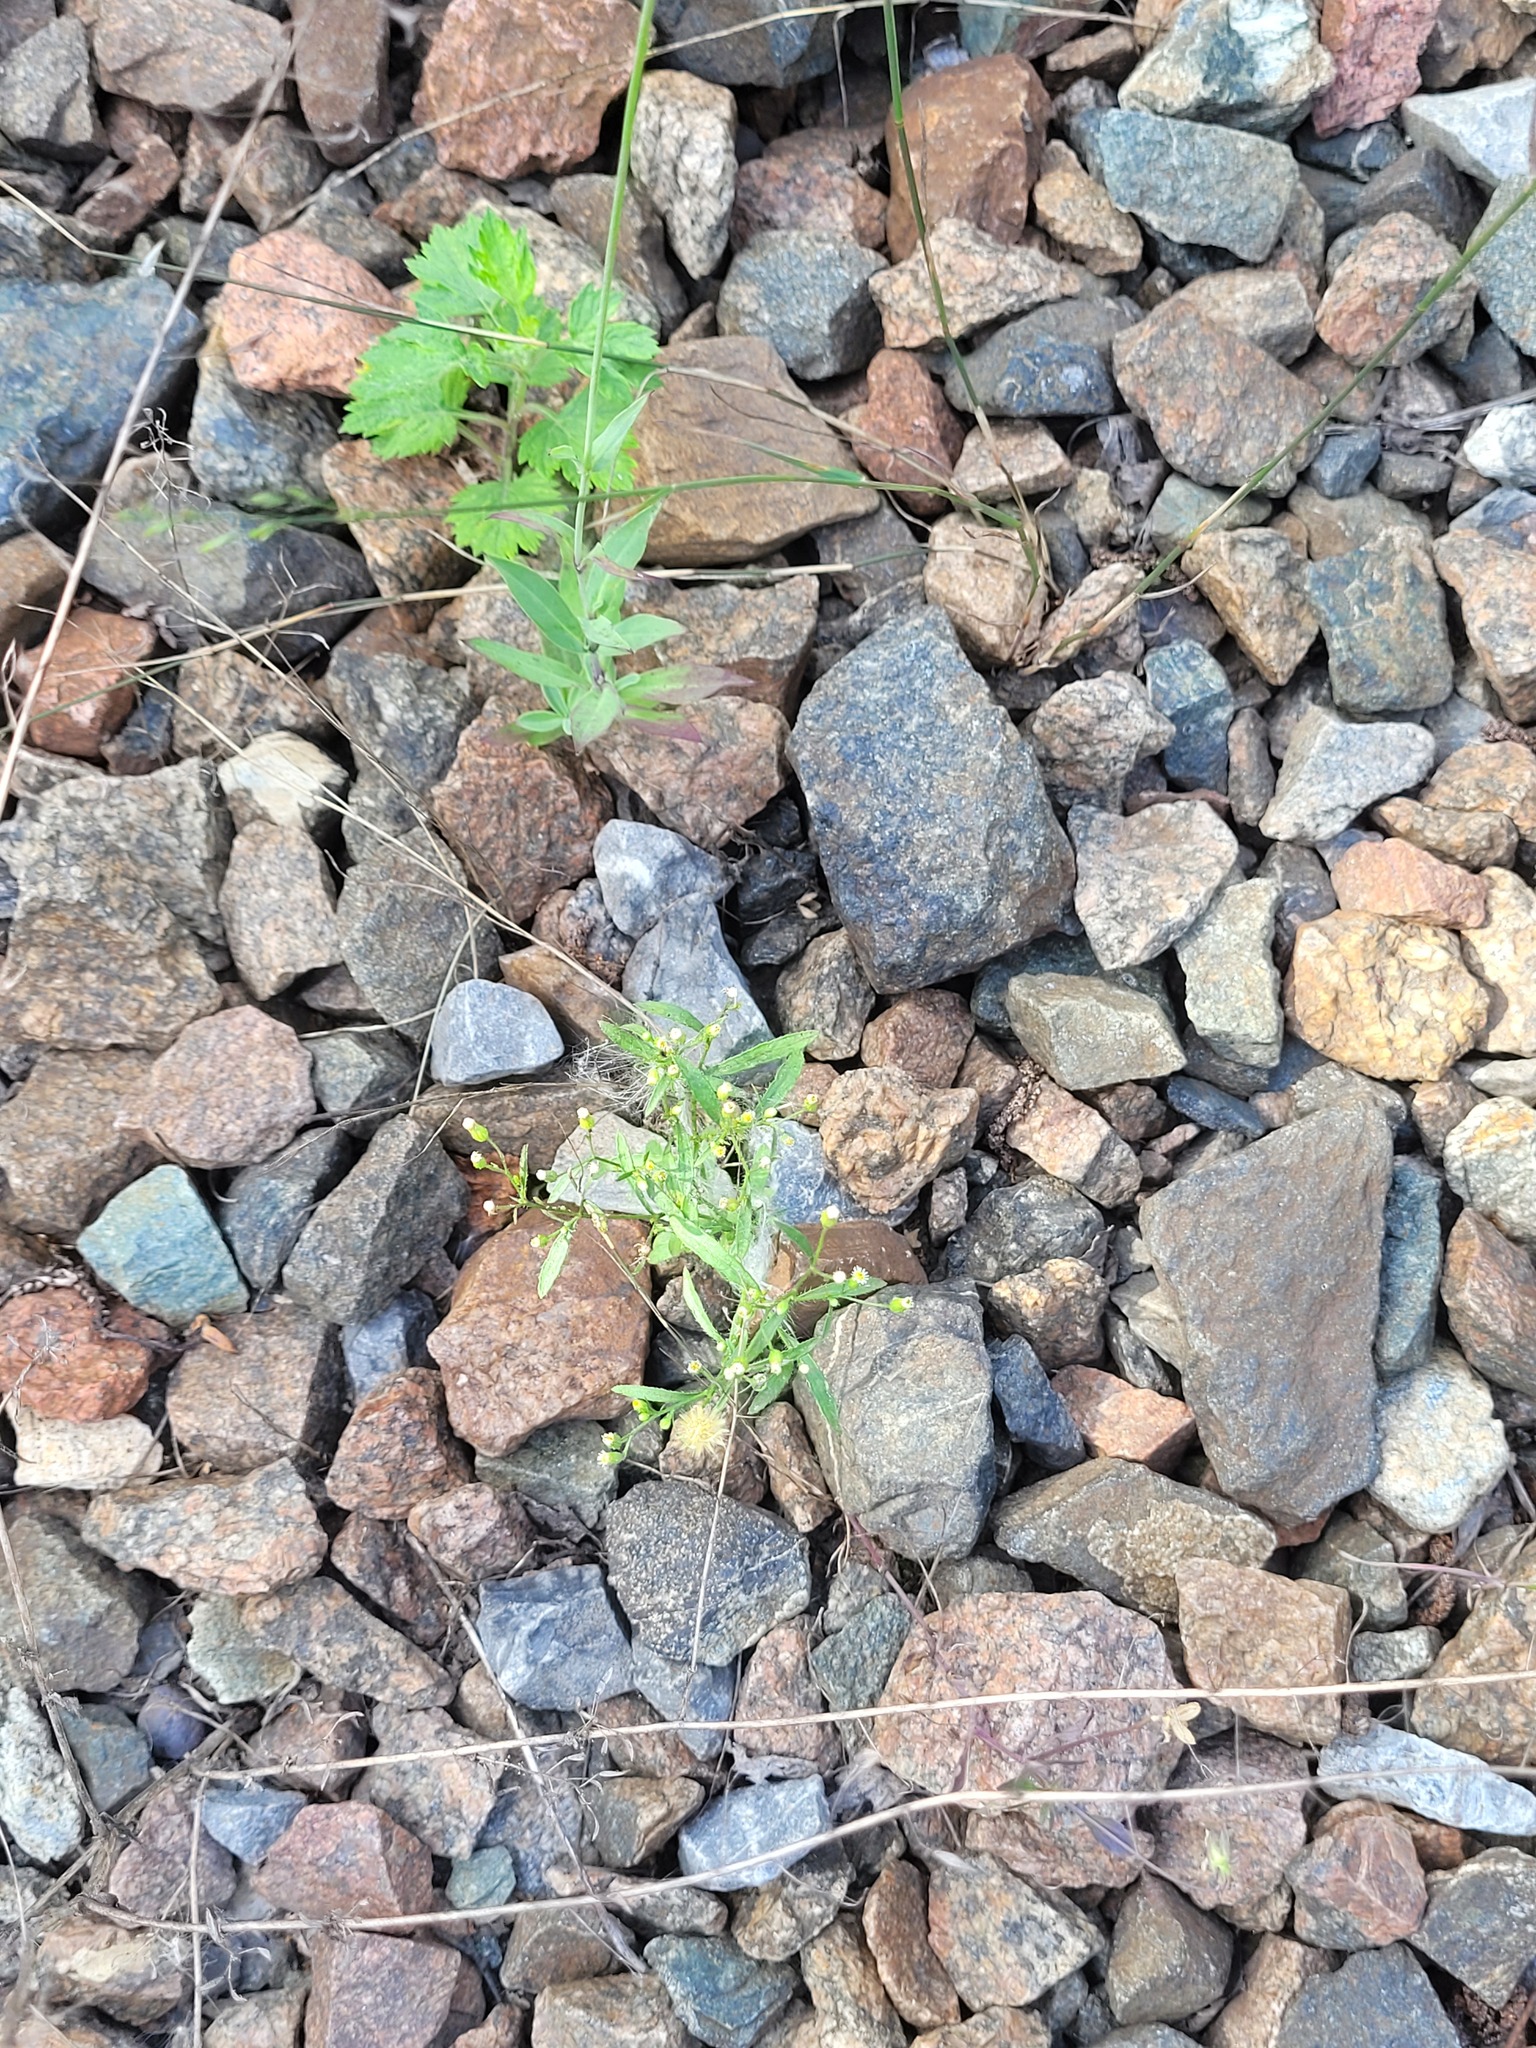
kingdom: Plantae
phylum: Tracheophyta
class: Magnoliopsida
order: Asterales
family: Asteraceae
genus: Erigeron
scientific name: Erigeron canadensis
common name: Canadian fleabane
